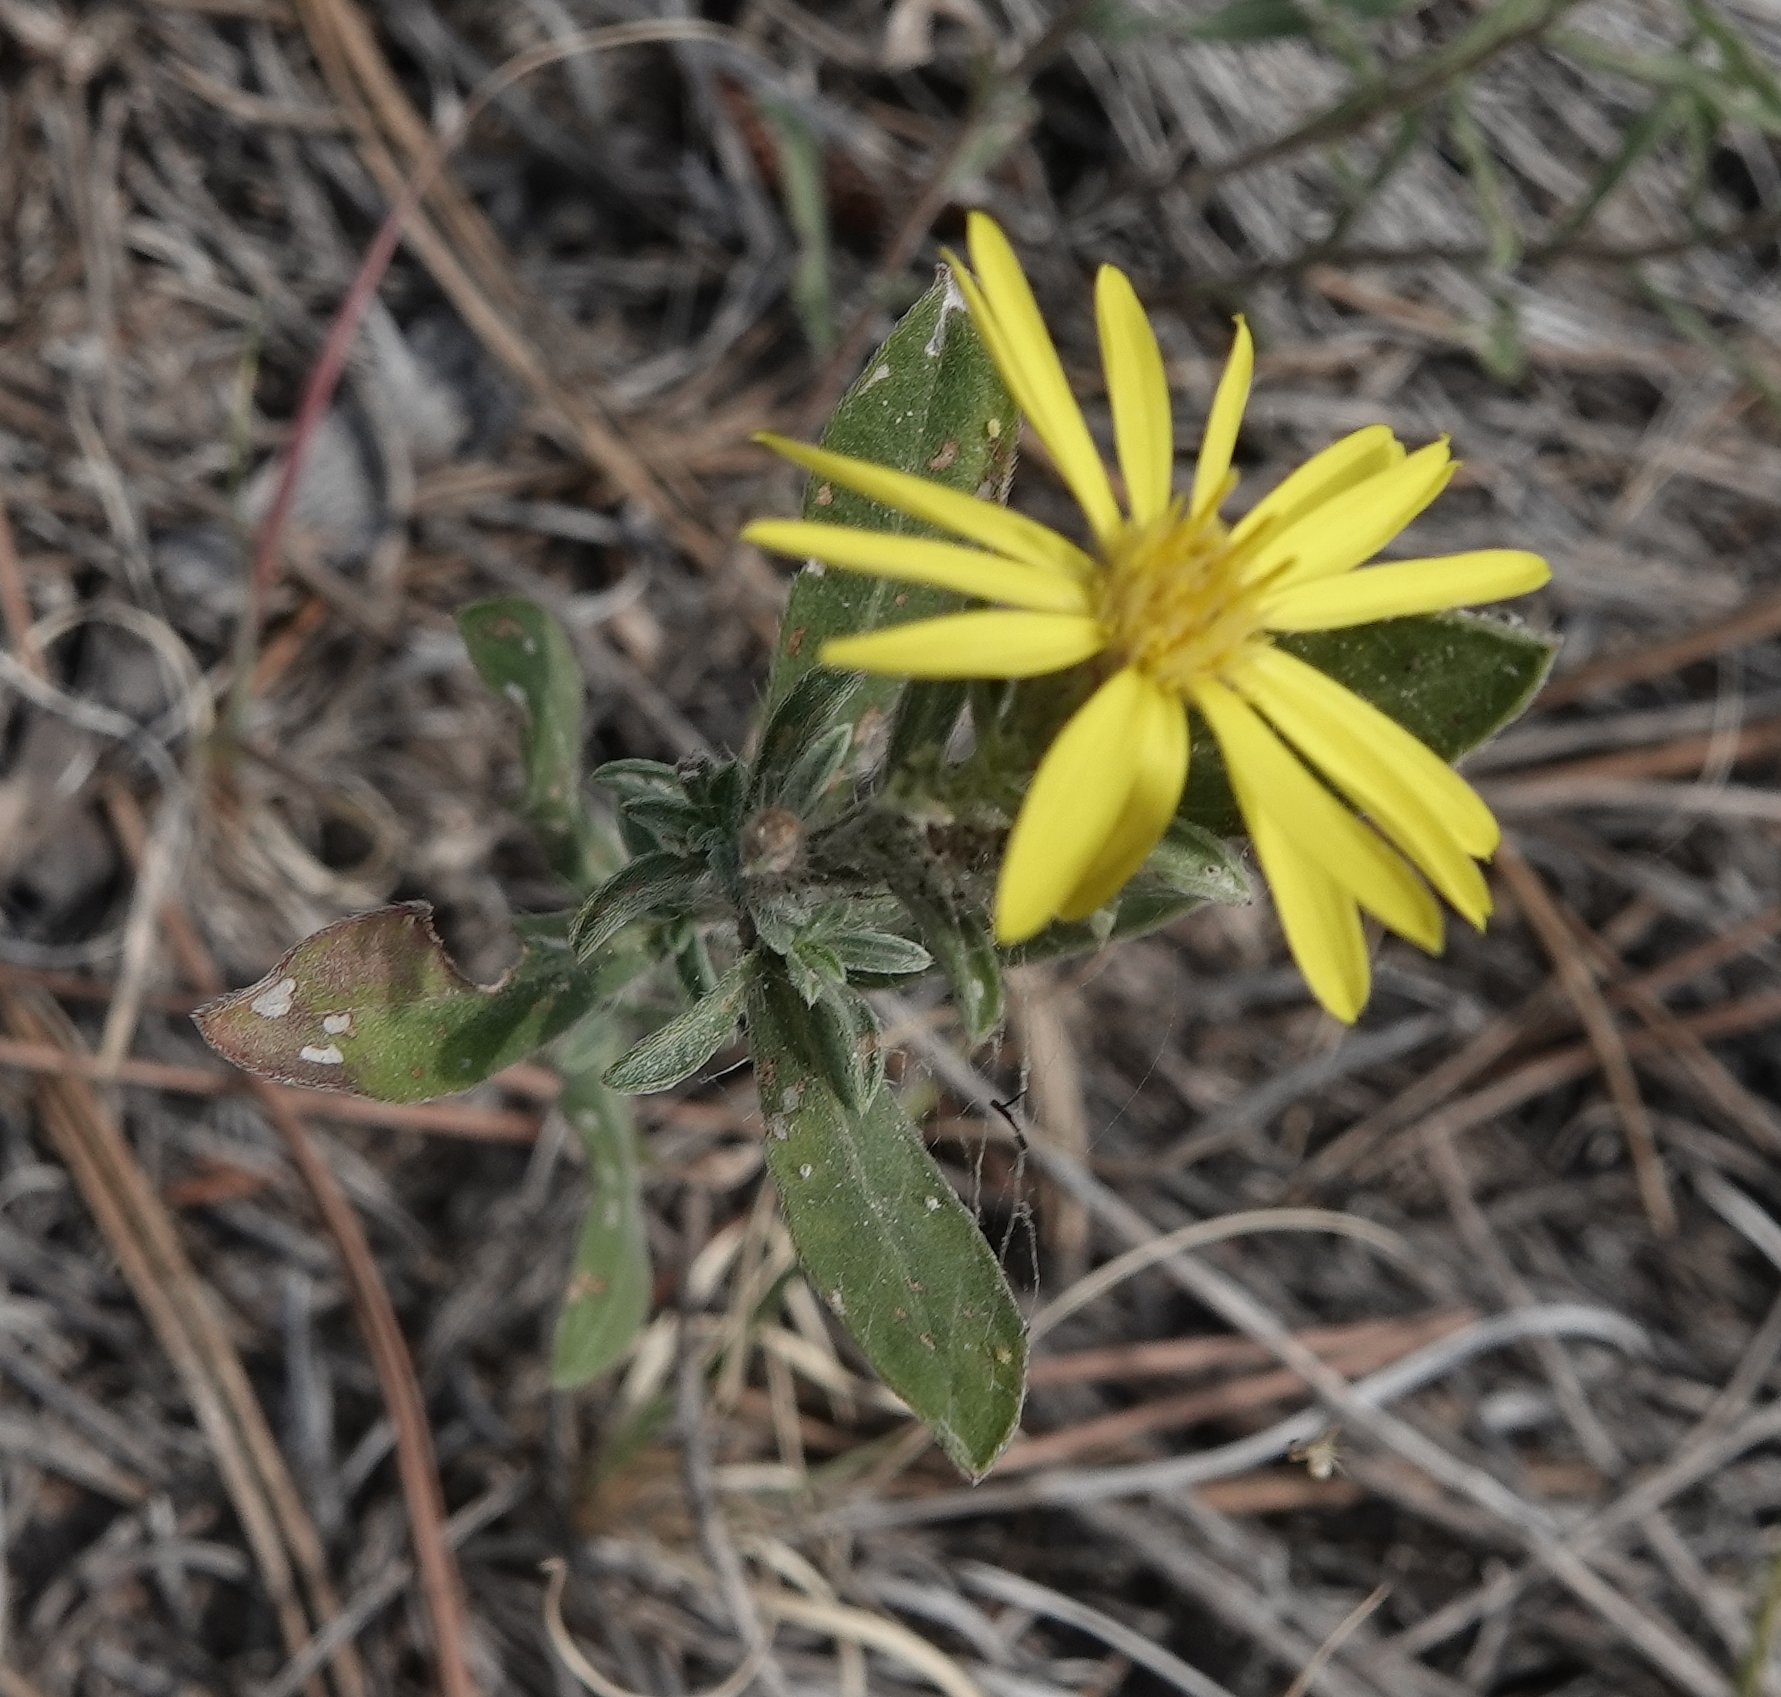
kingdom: Plantae
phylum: Tracheophyta
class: Magnoliopsida
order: Asterales
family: Asteraceae
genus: Heterotheca
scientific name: Heterotheca villosa
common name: Hairy false goldenaster
